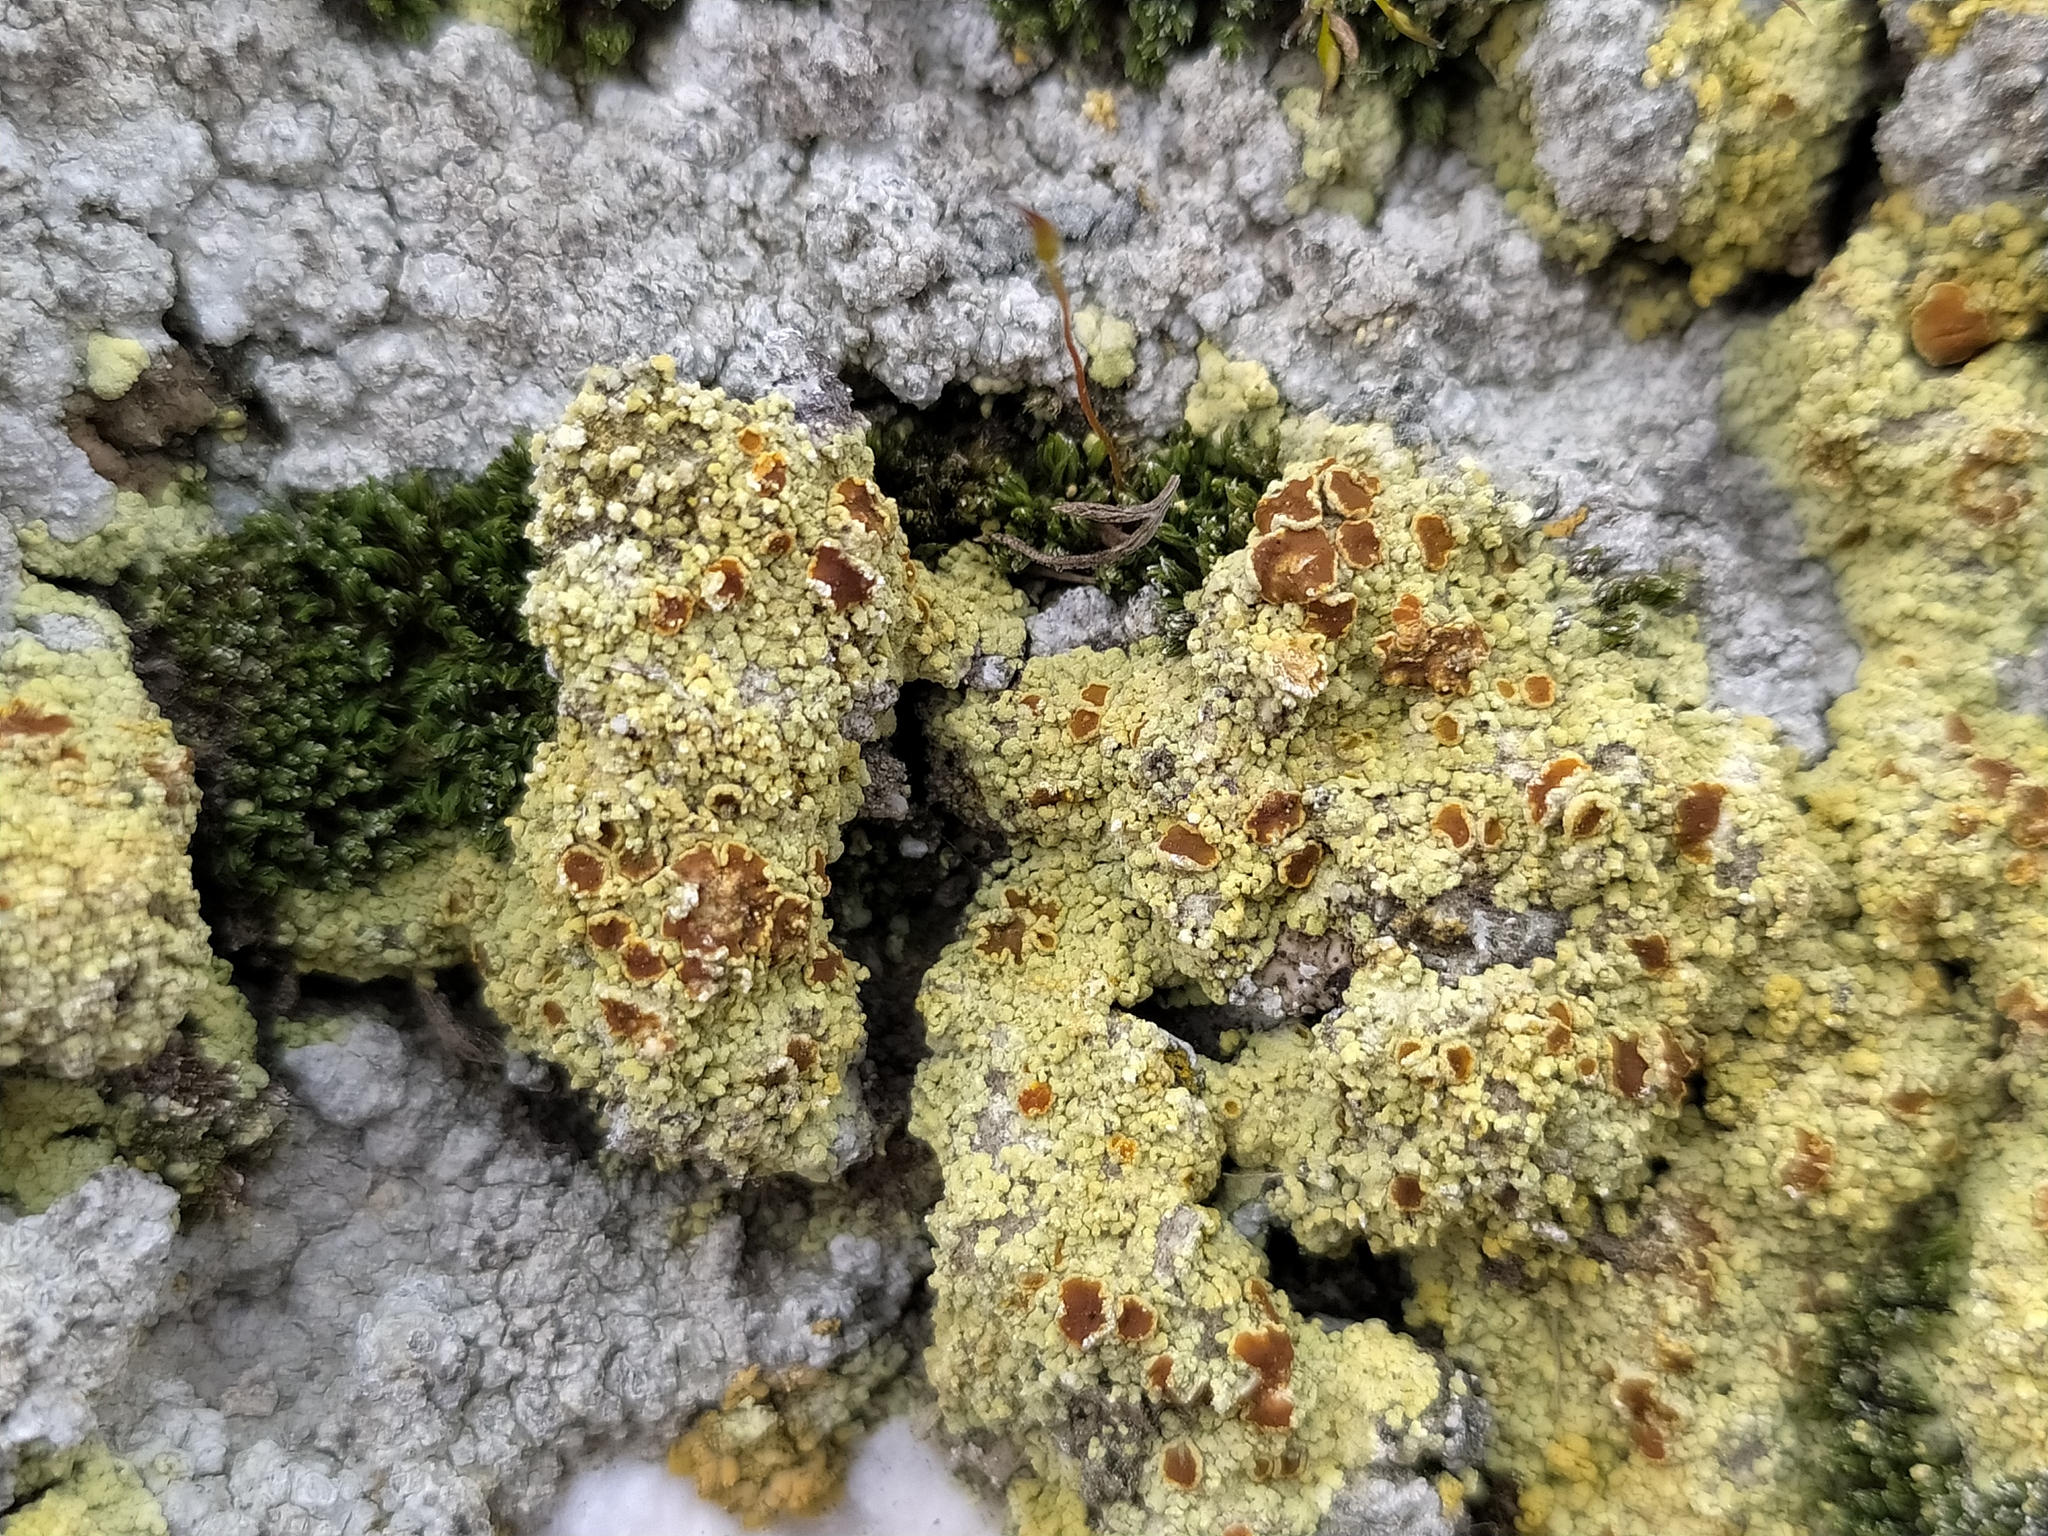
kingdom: Fungi
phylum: Ascomycota
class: Lecanoromycetes
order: Teloschistales
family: Teloschistaceae
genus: Gyalolechia
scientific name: Gyalolechia bracteata
